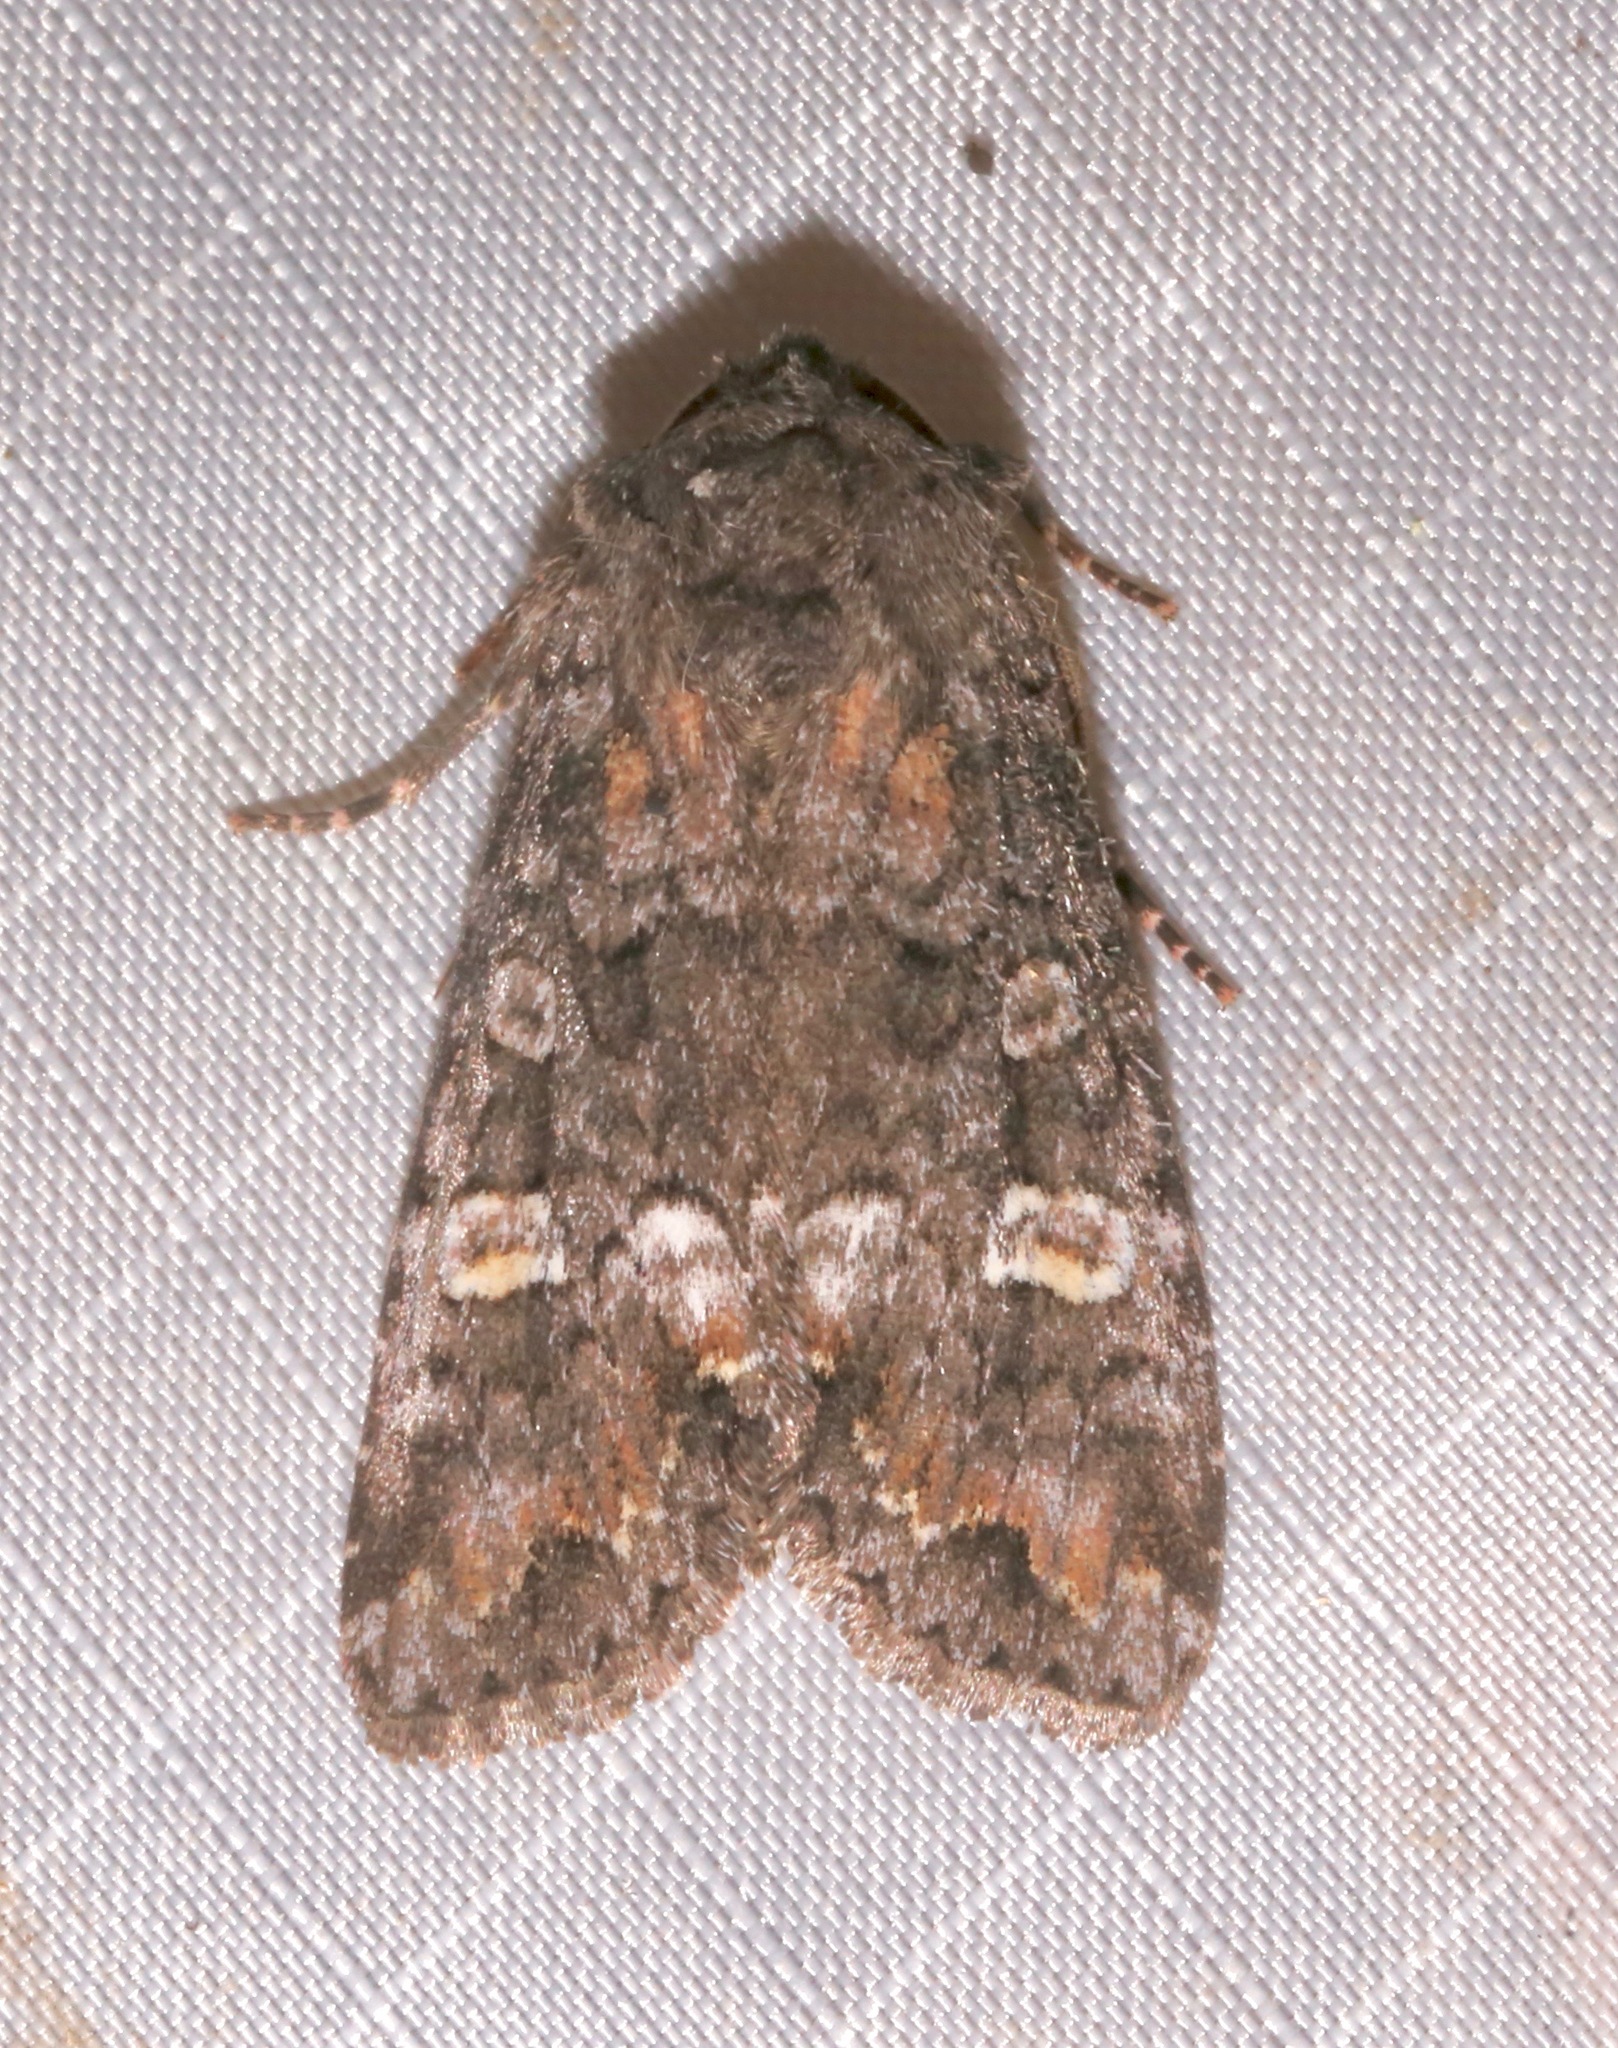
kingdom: Animalia
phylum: Arthropoda
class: Insecta
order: Lepidoptera
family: Noctuidae
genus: Spiramater
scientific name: Spiramater lutra
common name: Otter spiramater moth
